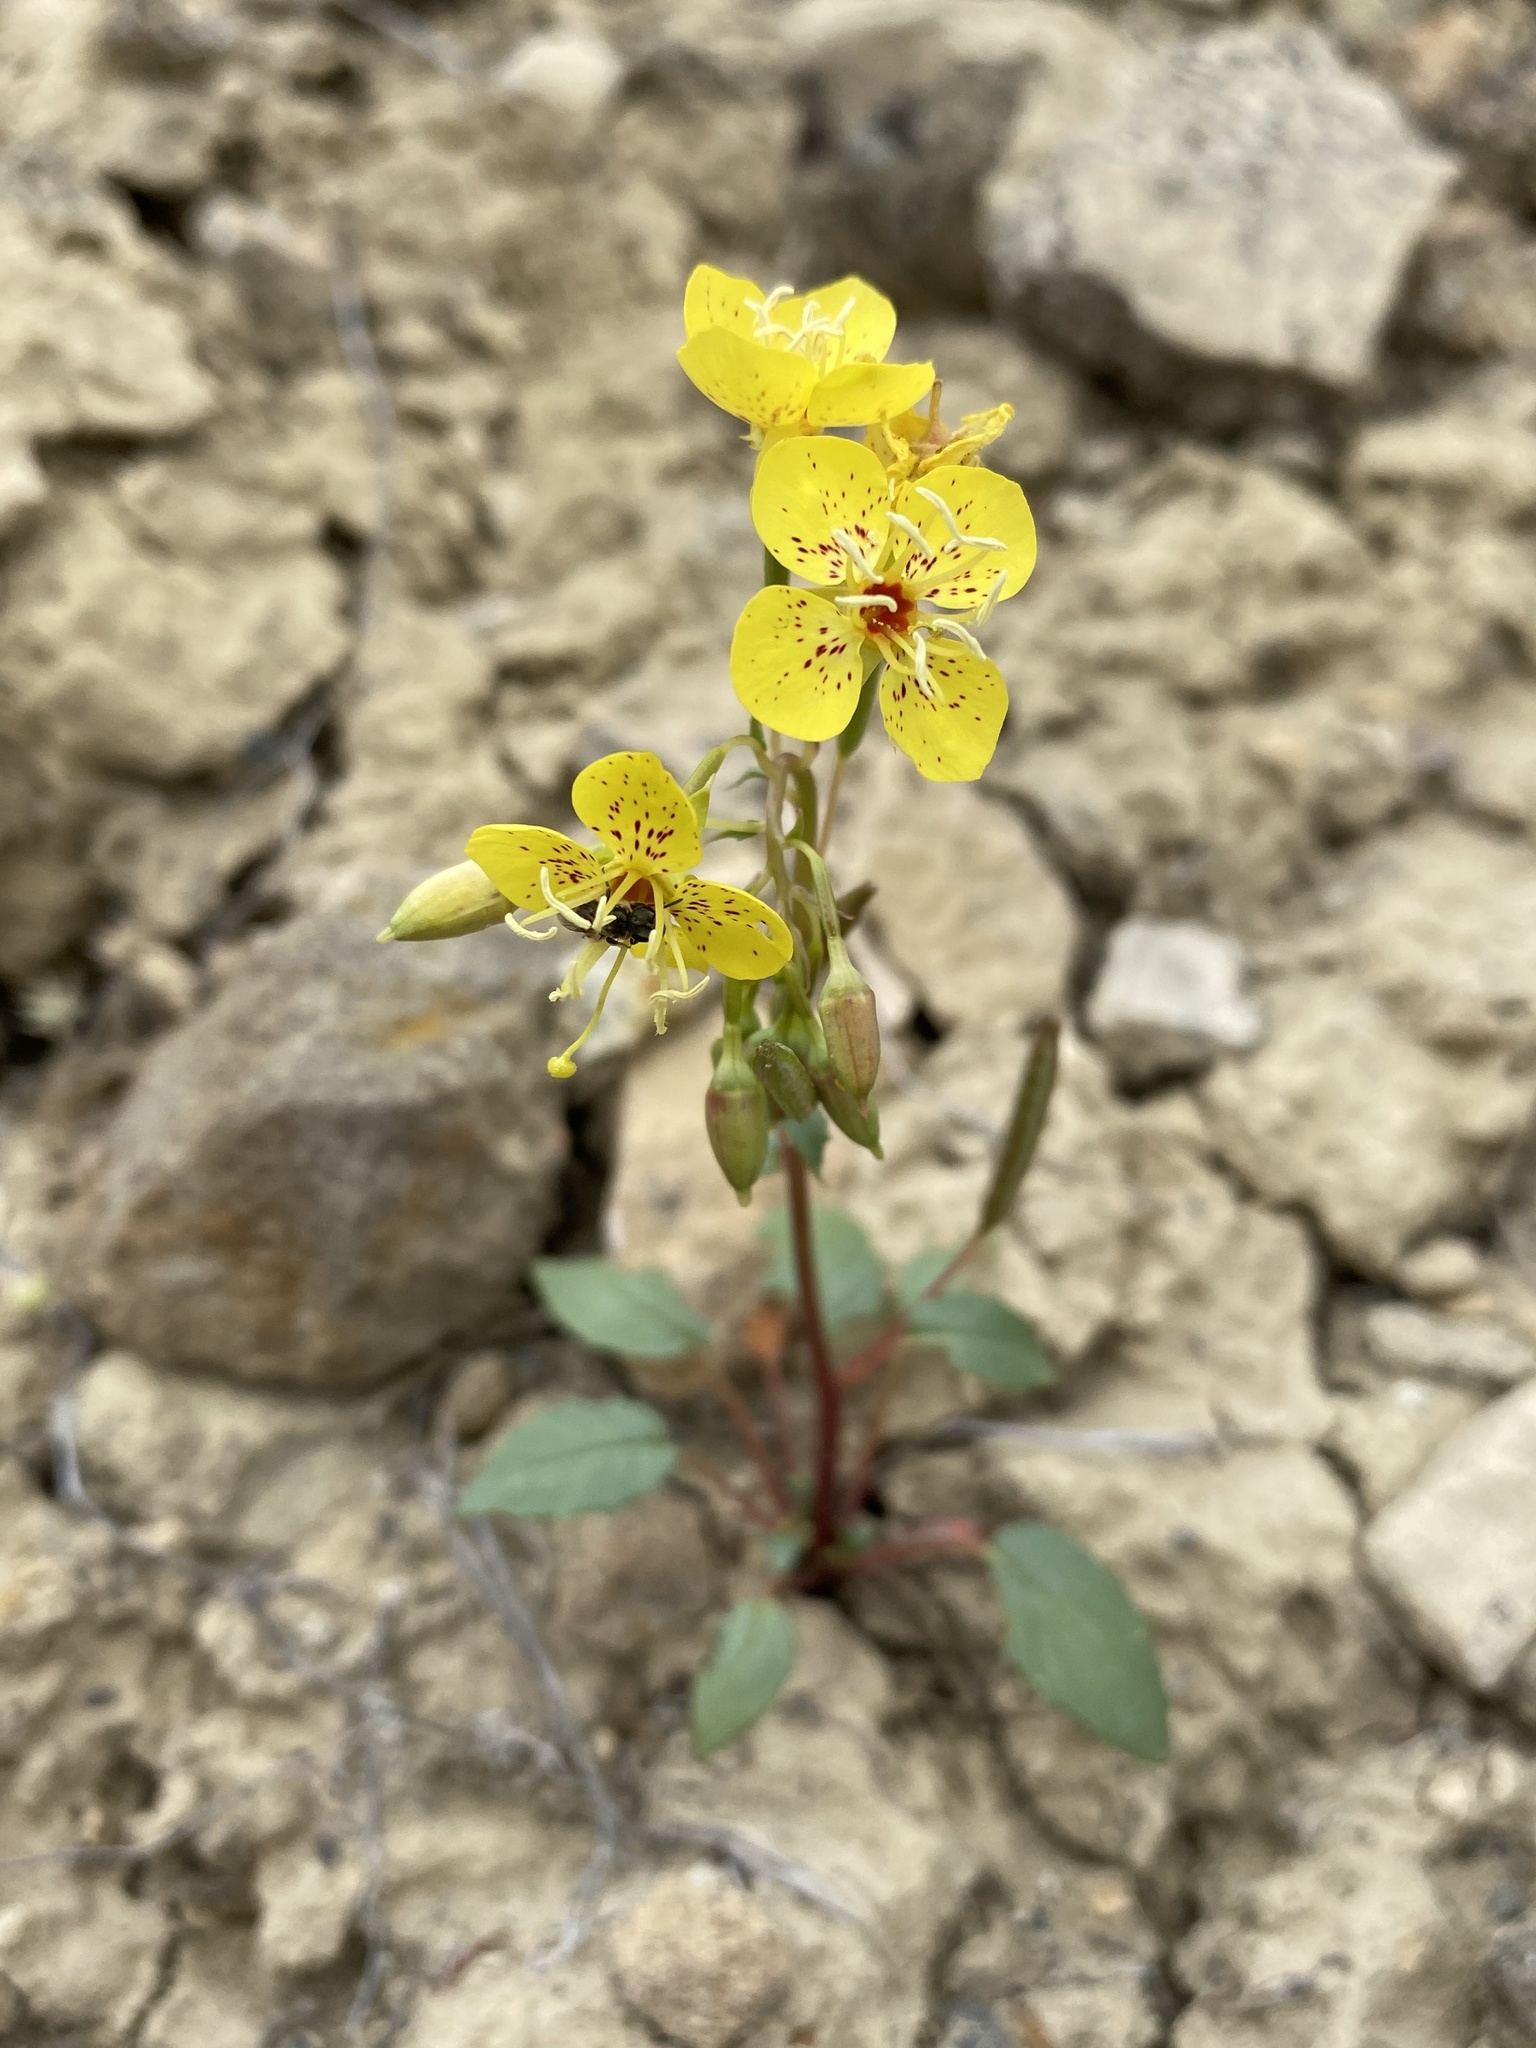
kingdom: Plantae
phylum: Tracheophyta
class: Magnoliopsida
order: Myrtales
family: Onagraceae
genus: Chylismia
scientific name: Chylismia claviformis
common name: Browneyes
